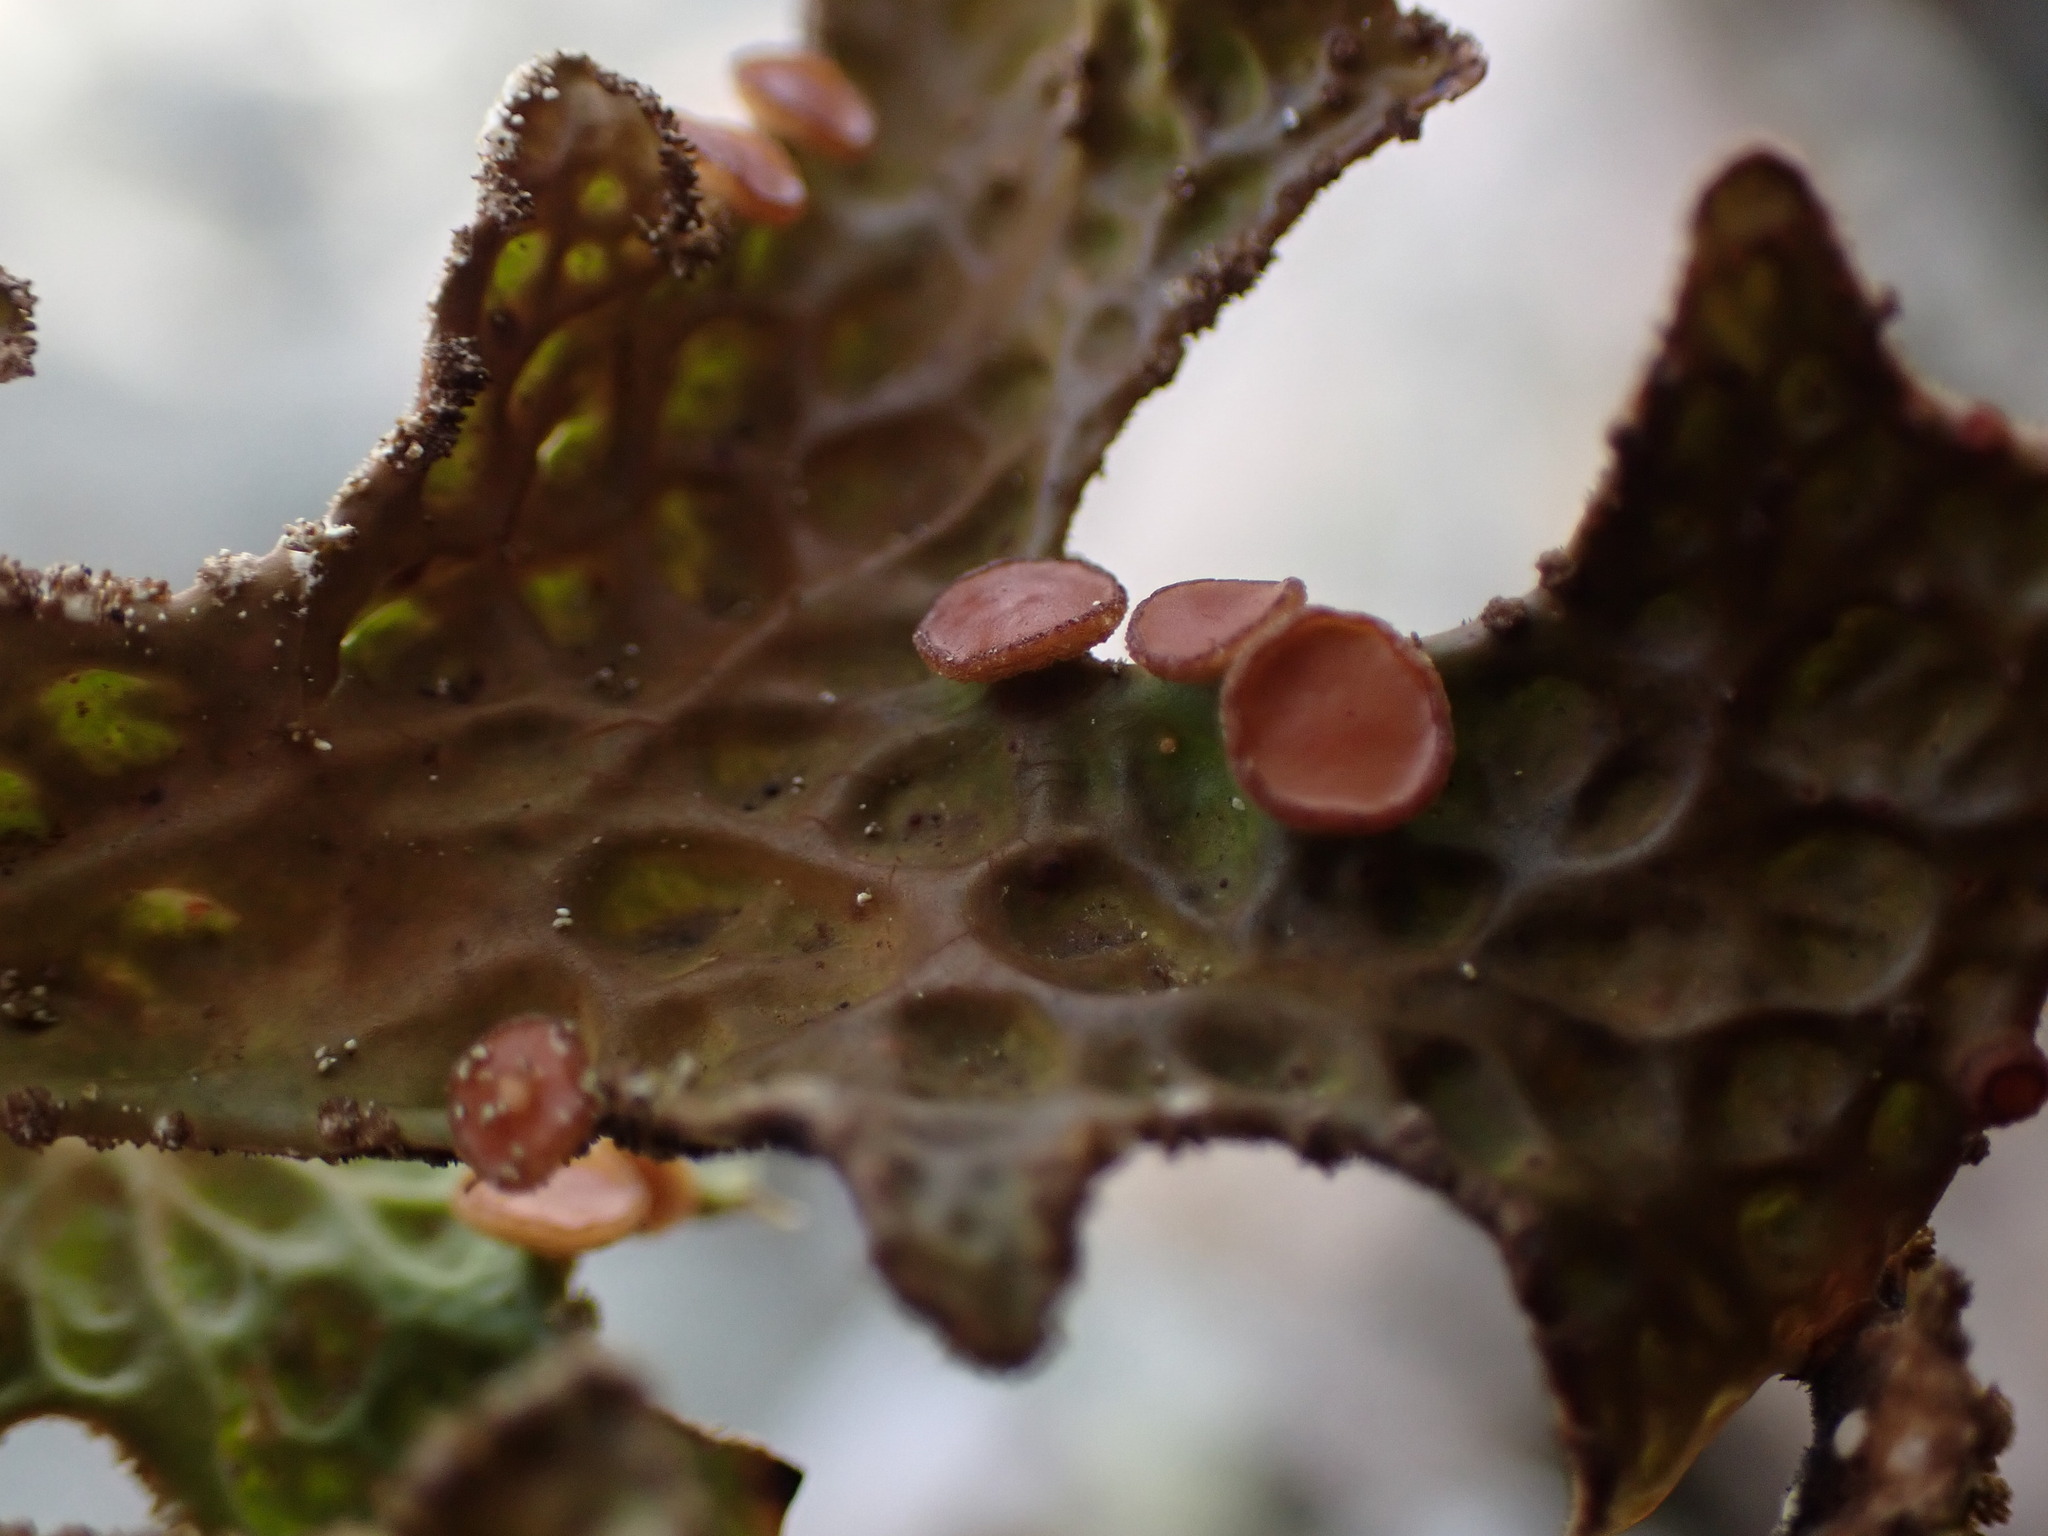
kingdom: Fungi
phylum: Ascomycota
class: Lecanoromycetes
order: Peltigerales
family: Lobariaceae
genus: Lobaria
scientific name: Lobaria pulmonaria
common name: Lungwort
